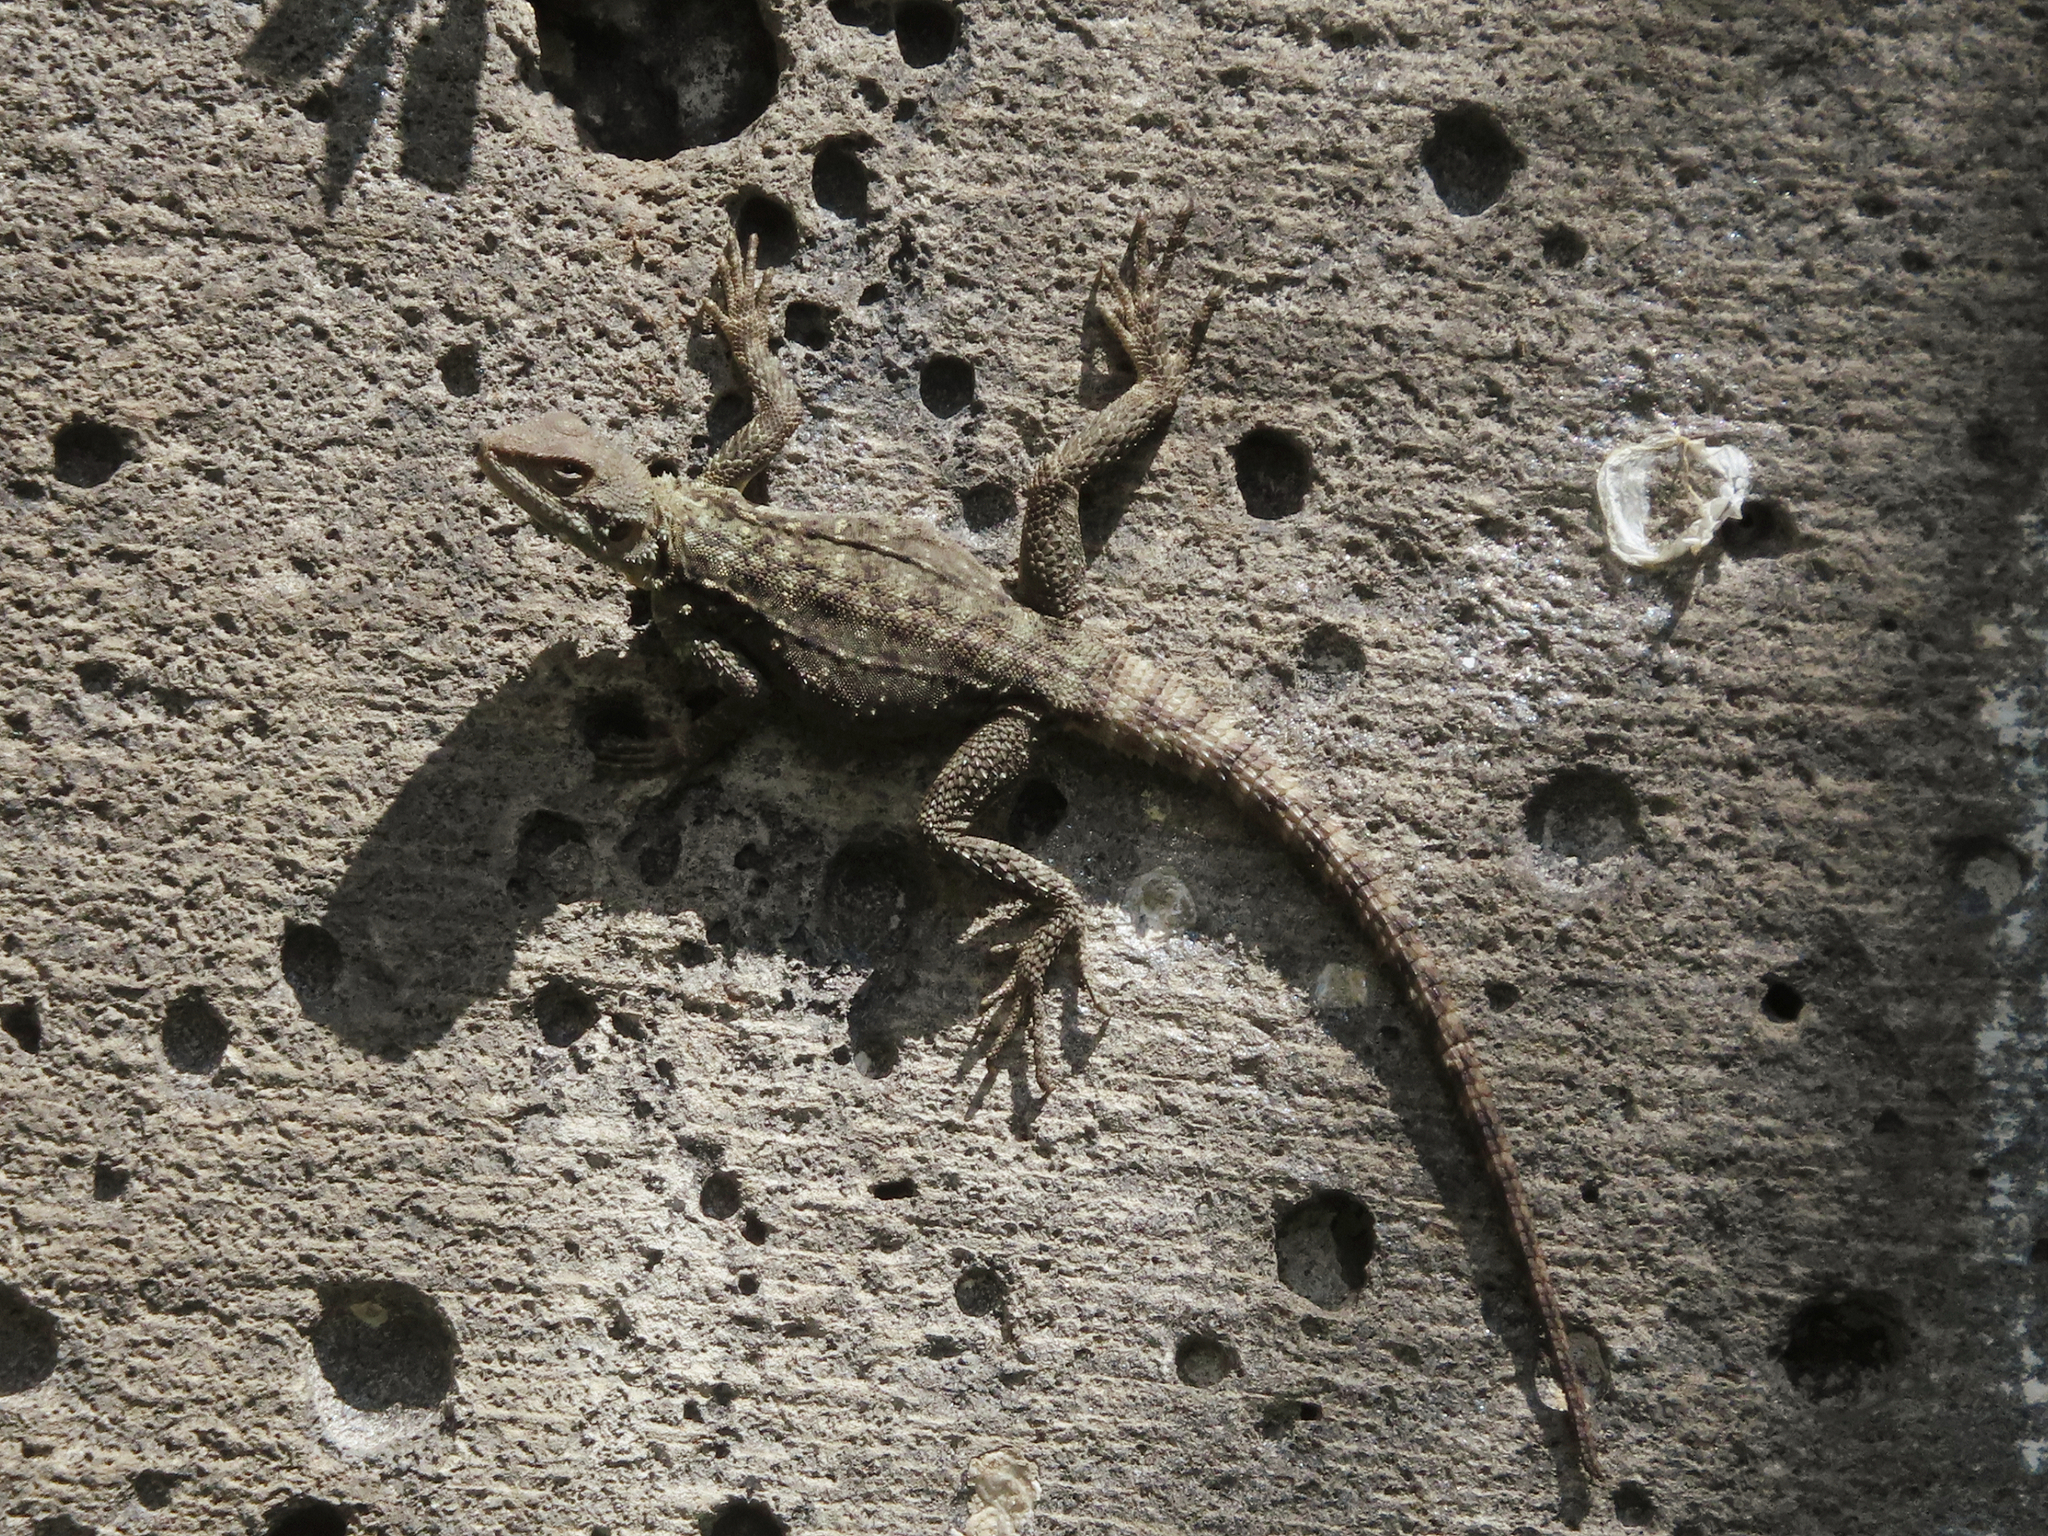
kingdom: Animalia
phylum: Chordata
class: Squamata
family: Agamidae
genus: Paralaudakia
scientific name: Paralaudakia caucasia
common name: Caucasian agama
